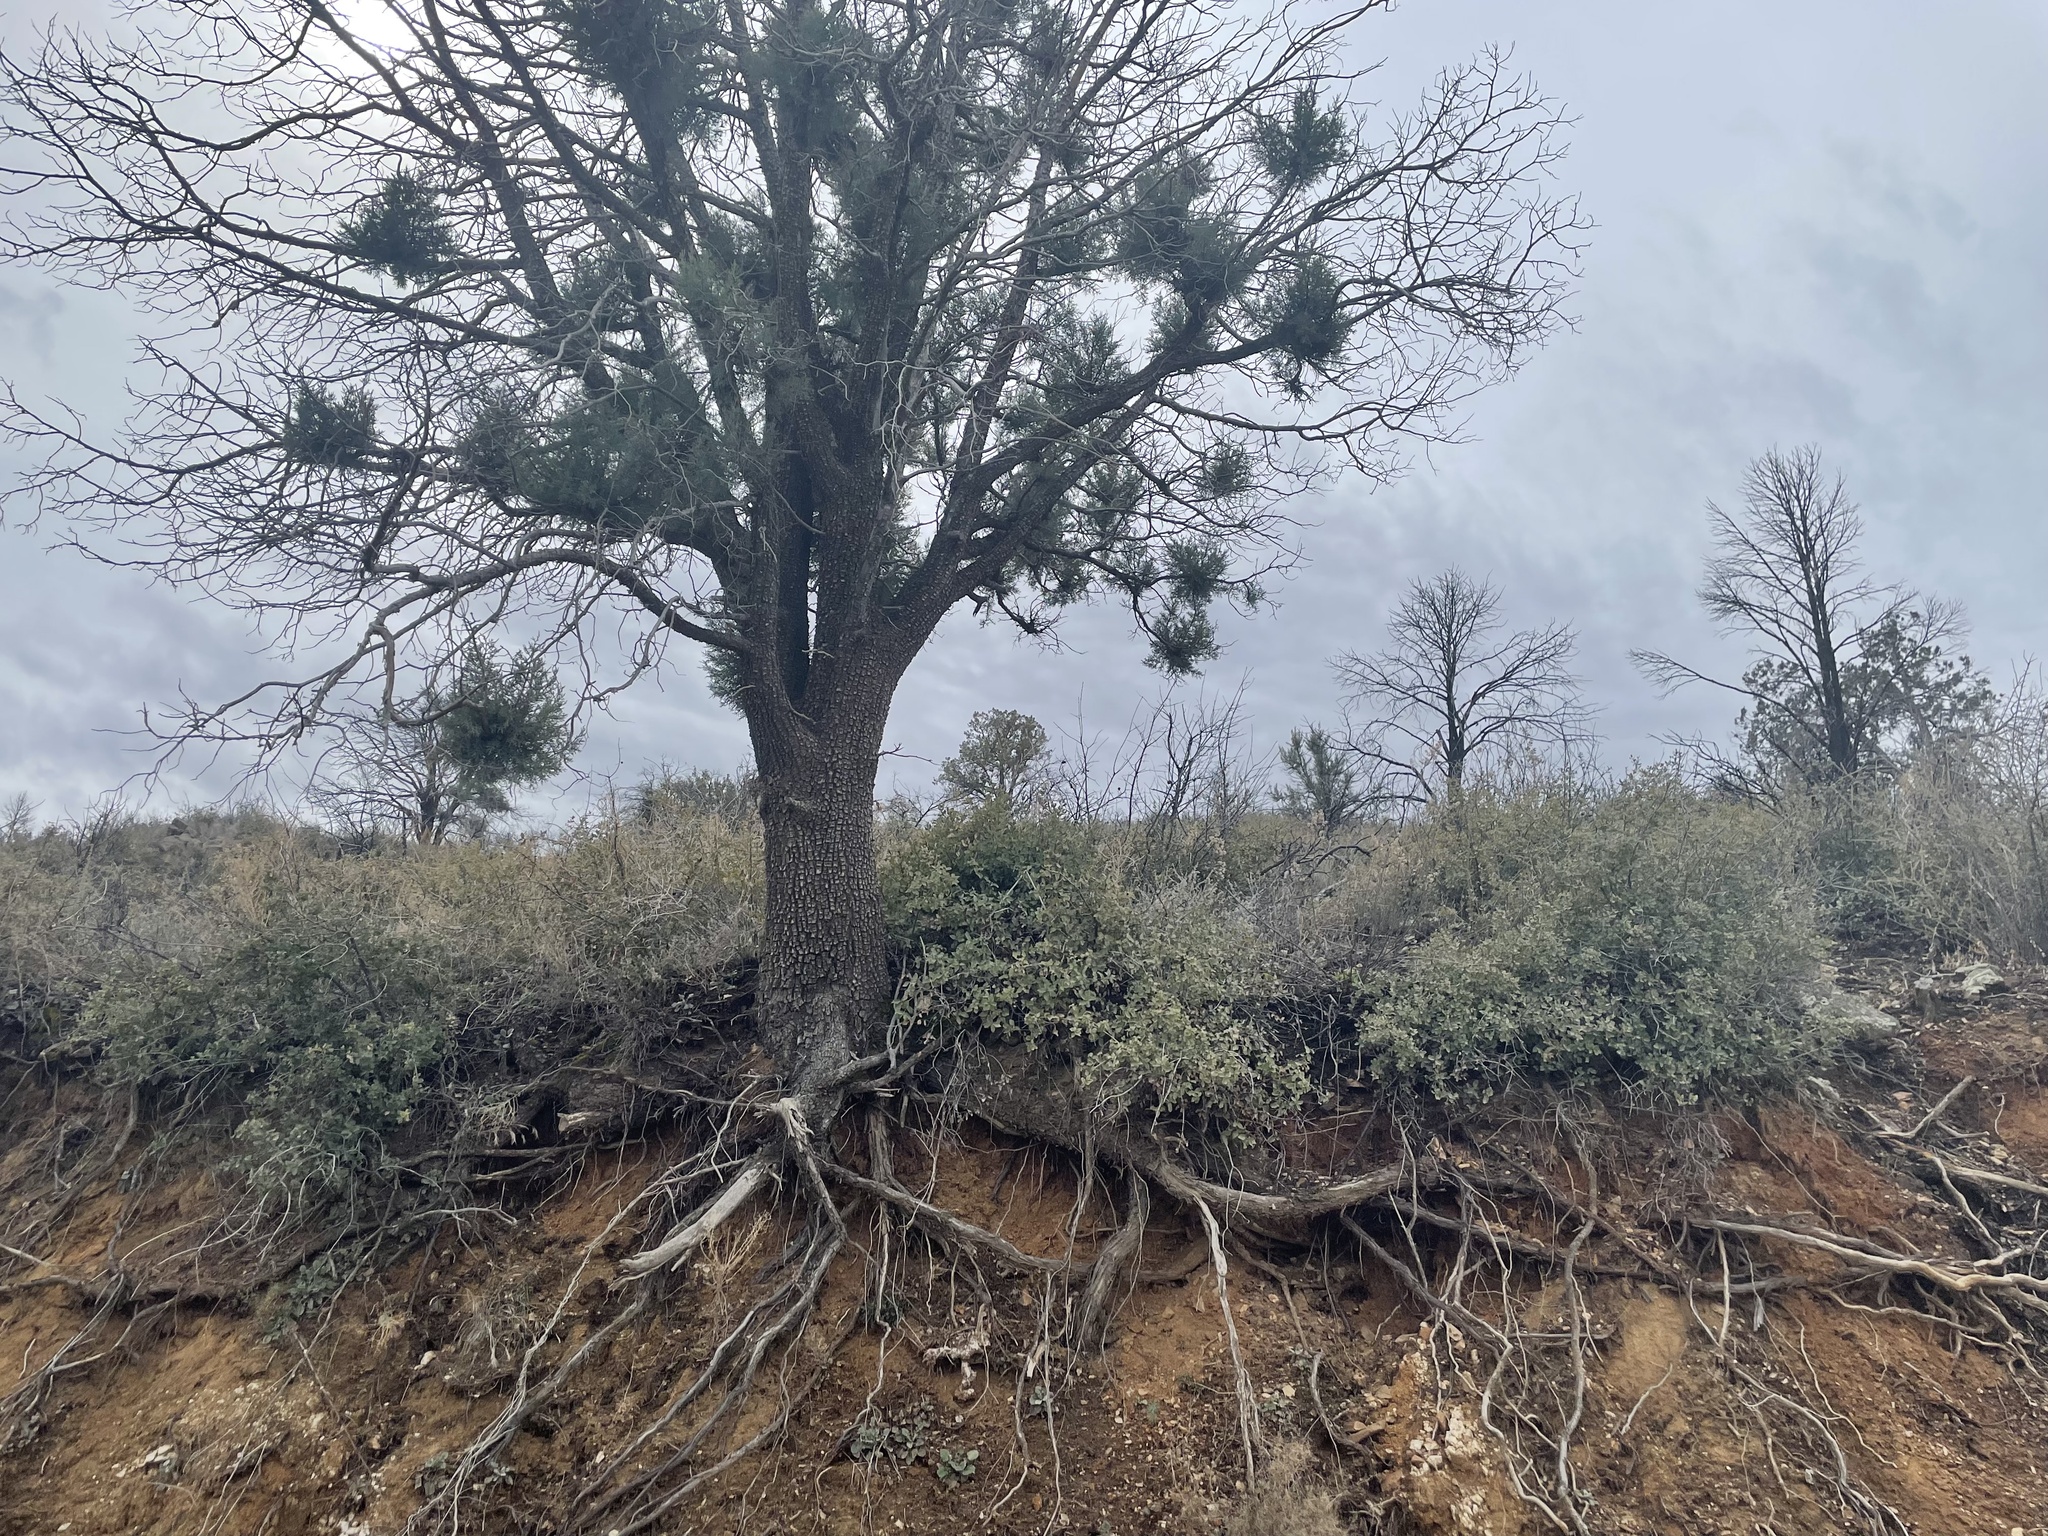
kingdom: Plantae
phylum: Tracheophyta
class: Pinopsida
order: Pinales
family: Cupressaceae
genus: Juniperus
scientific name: Juniperus deppeana
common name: Alligator juniper
